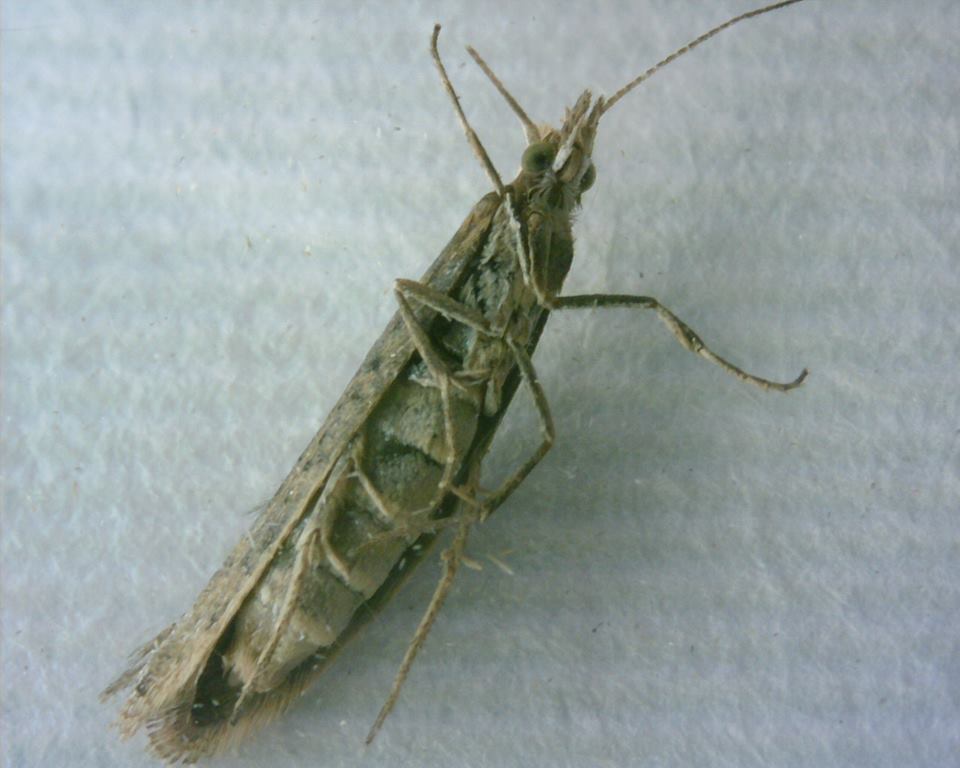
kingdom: Animalia
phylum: Arthropoda
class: Insecta
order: Lepidoptera
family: Plutellidae
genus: Plutella
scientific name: Plutella xylostella
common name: Diamond-back moth
